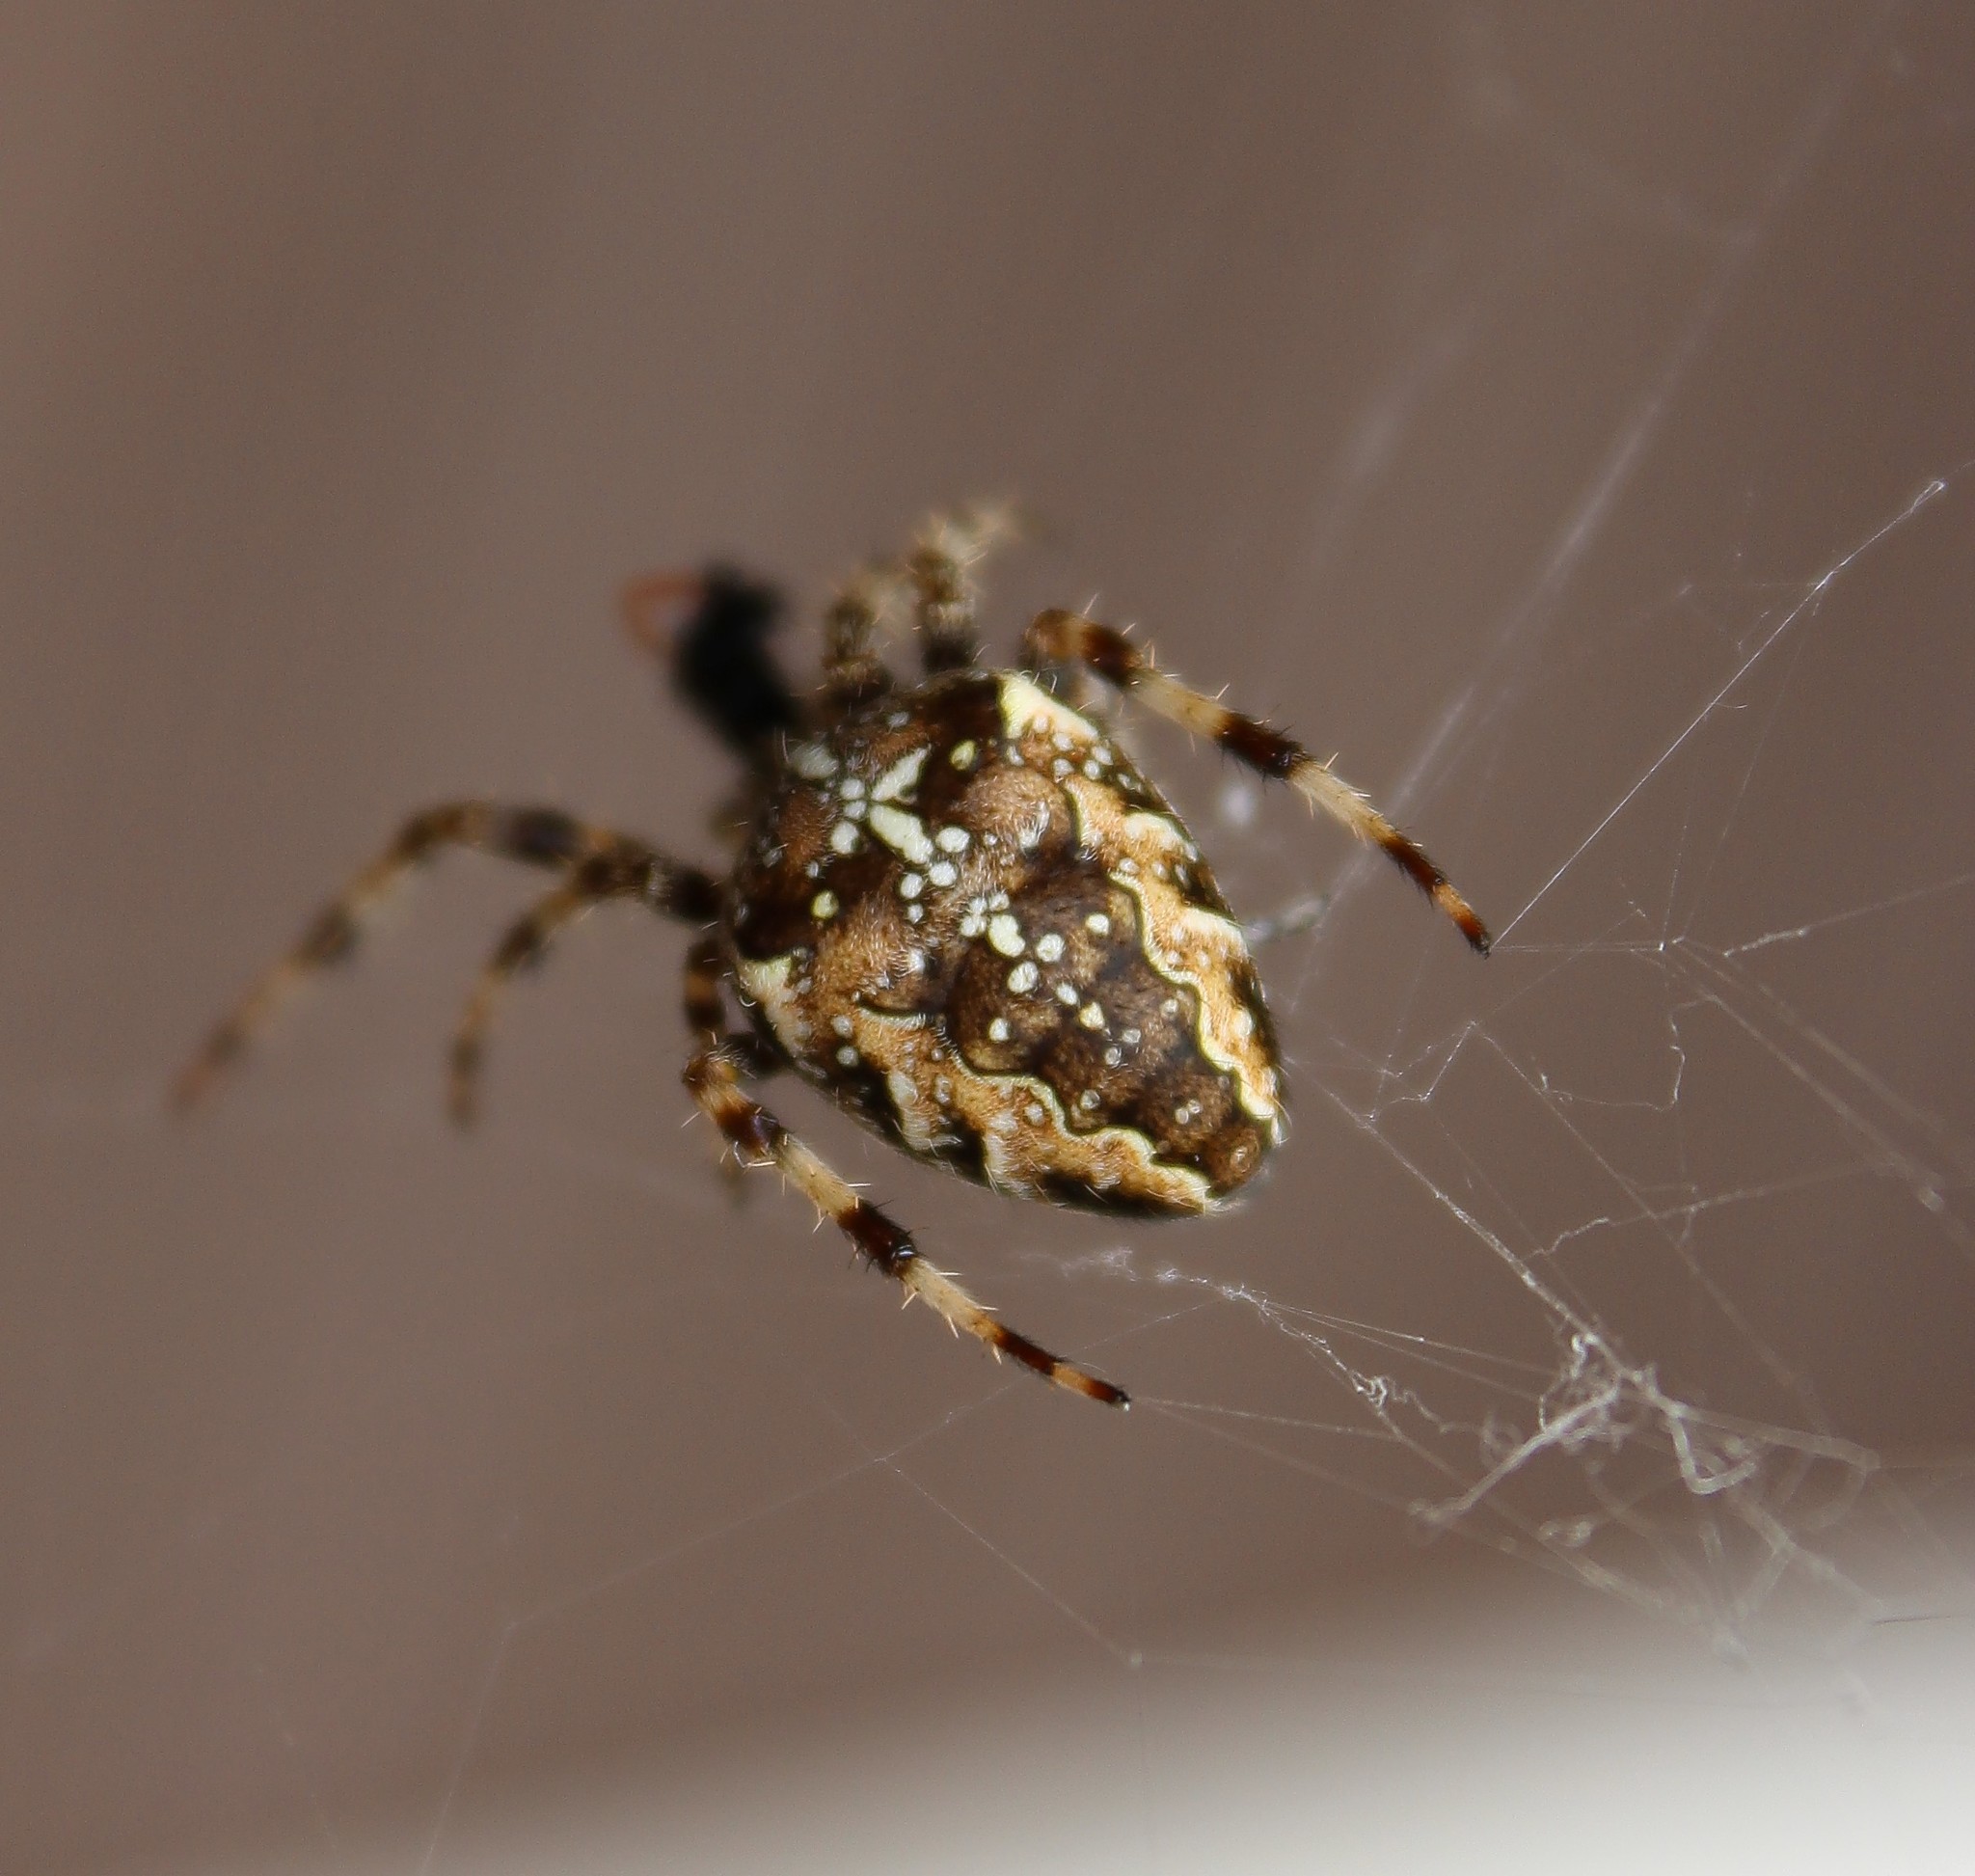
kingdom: Animalia
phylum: Arthropoda
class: Arachnida
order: Araneae
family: Araneidae
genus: Araneus
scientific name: Araneus diadematus
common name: Cross orbweaver
